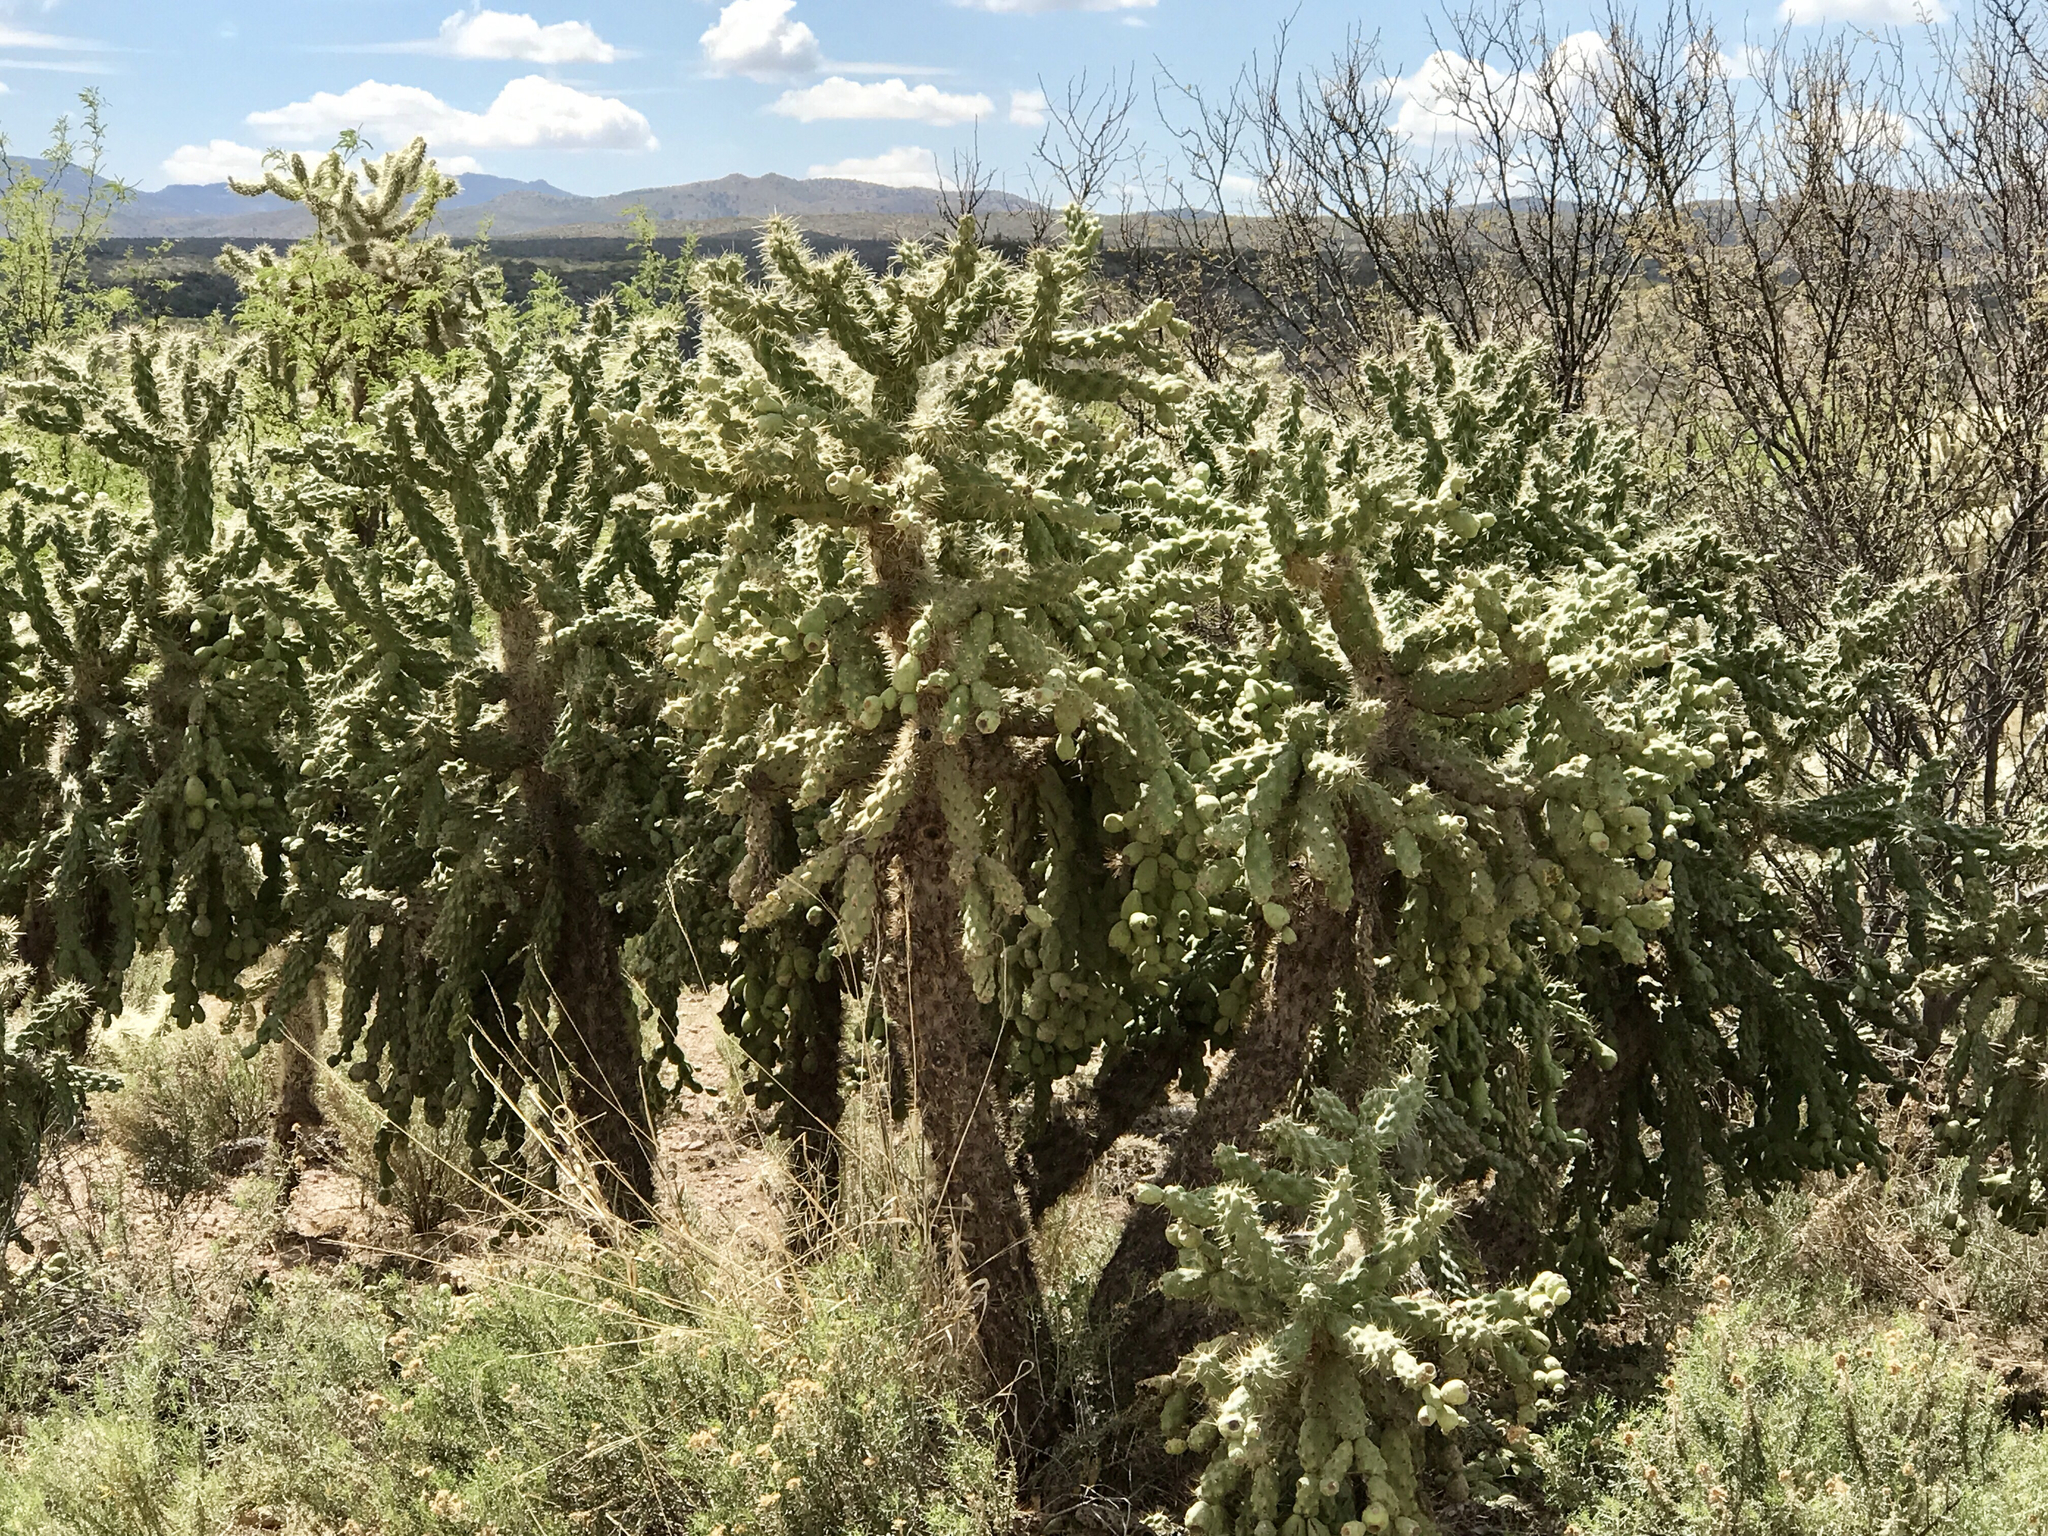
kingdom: Plantae
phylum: Tracheophyta
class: Magnoliopsida
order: Caryophyllales
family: Cactaceae
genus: Cylindropuntia
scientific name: Cylindropuntia fulgida
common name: Jumping cholla
